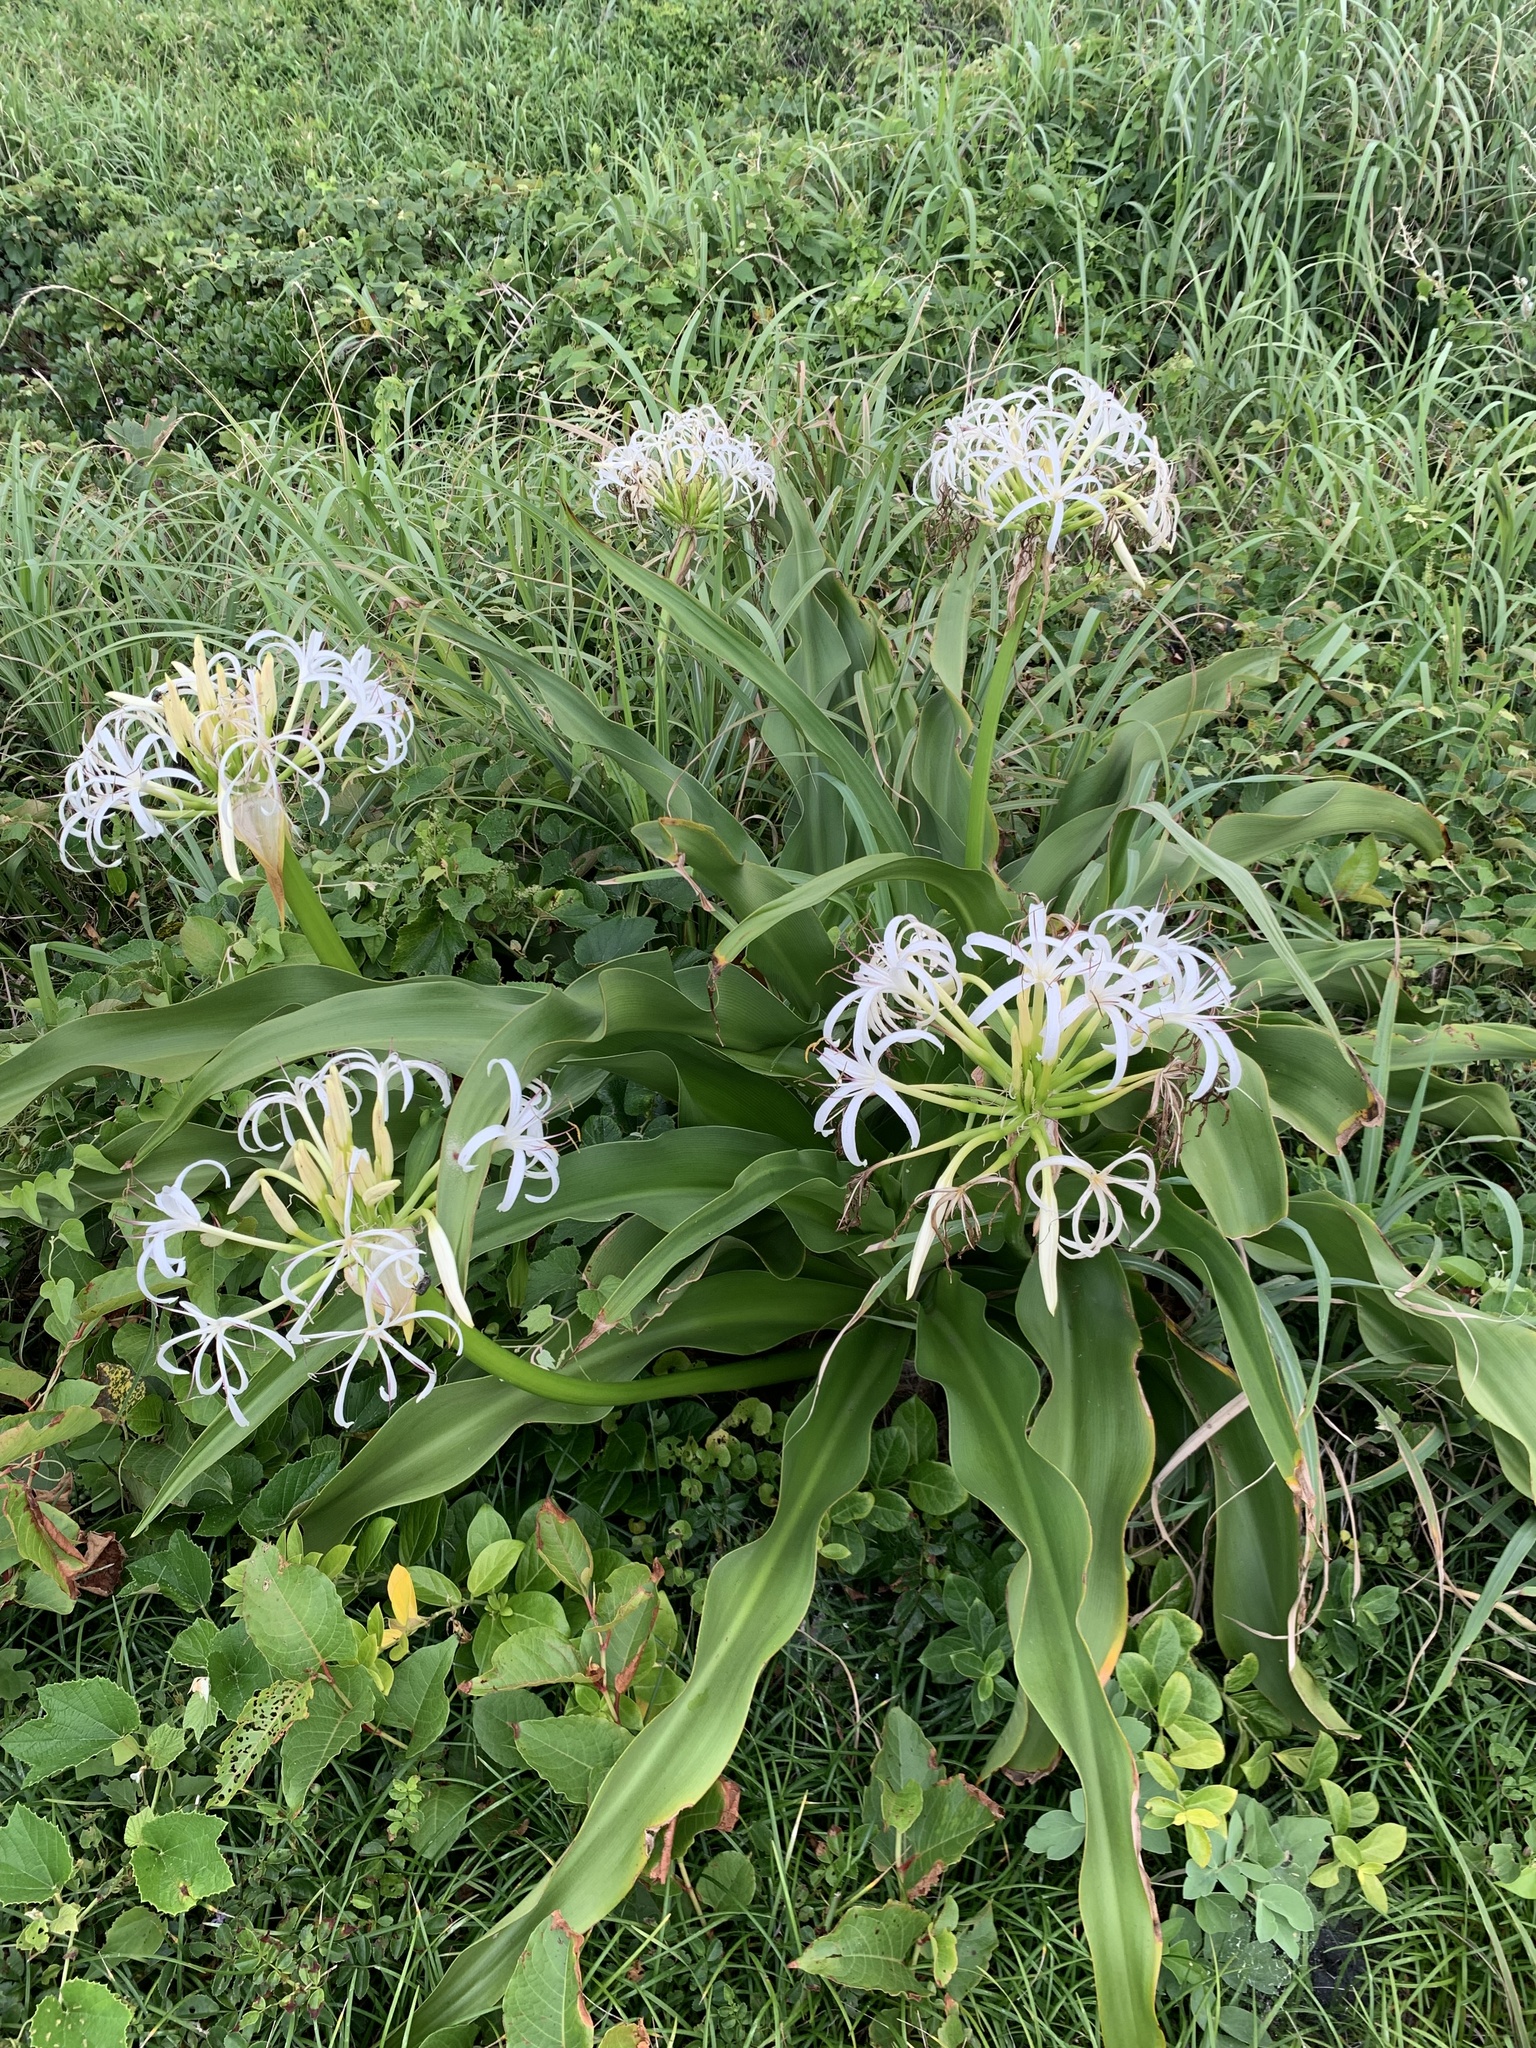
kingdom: Plantae
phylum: Tracheophyta
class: Liliopsida
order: Asparagales
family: Amaryllidaceae
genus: Crinum
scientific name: Crinum asiaticum
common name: Poisonbulb
